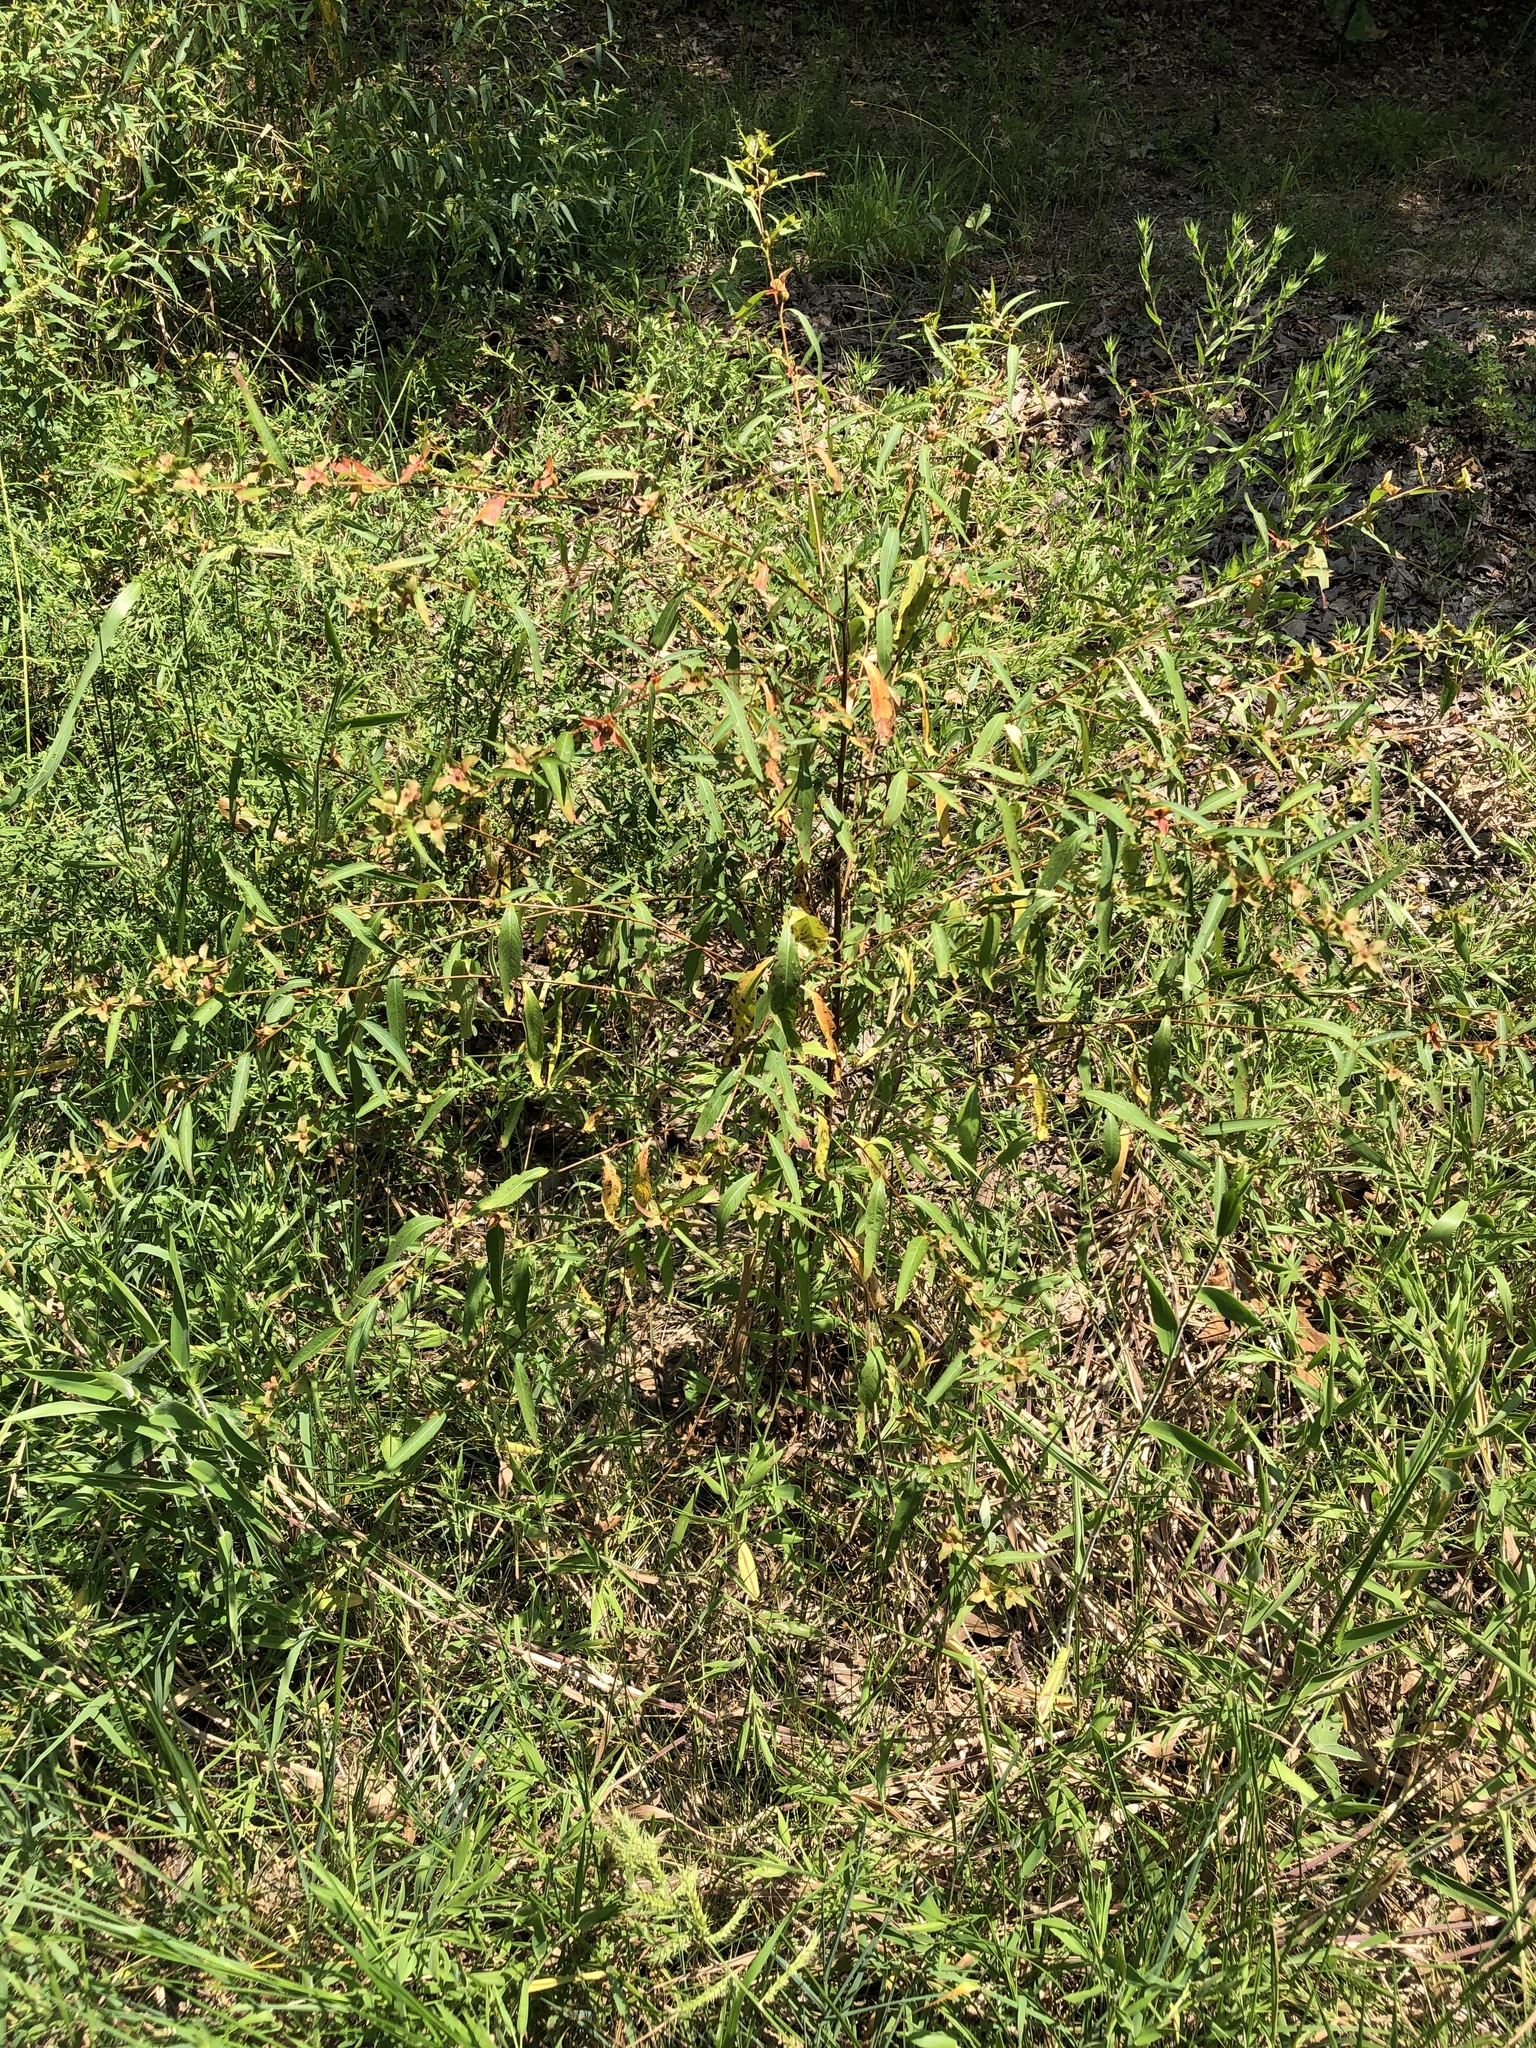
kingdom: Plantae
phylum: Tracheophyta
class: Magnoliopsida
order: Myrtales
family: Onagraceae
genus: Ludwigia
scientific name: Ludwigia alternifolia
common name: Rattlebox
